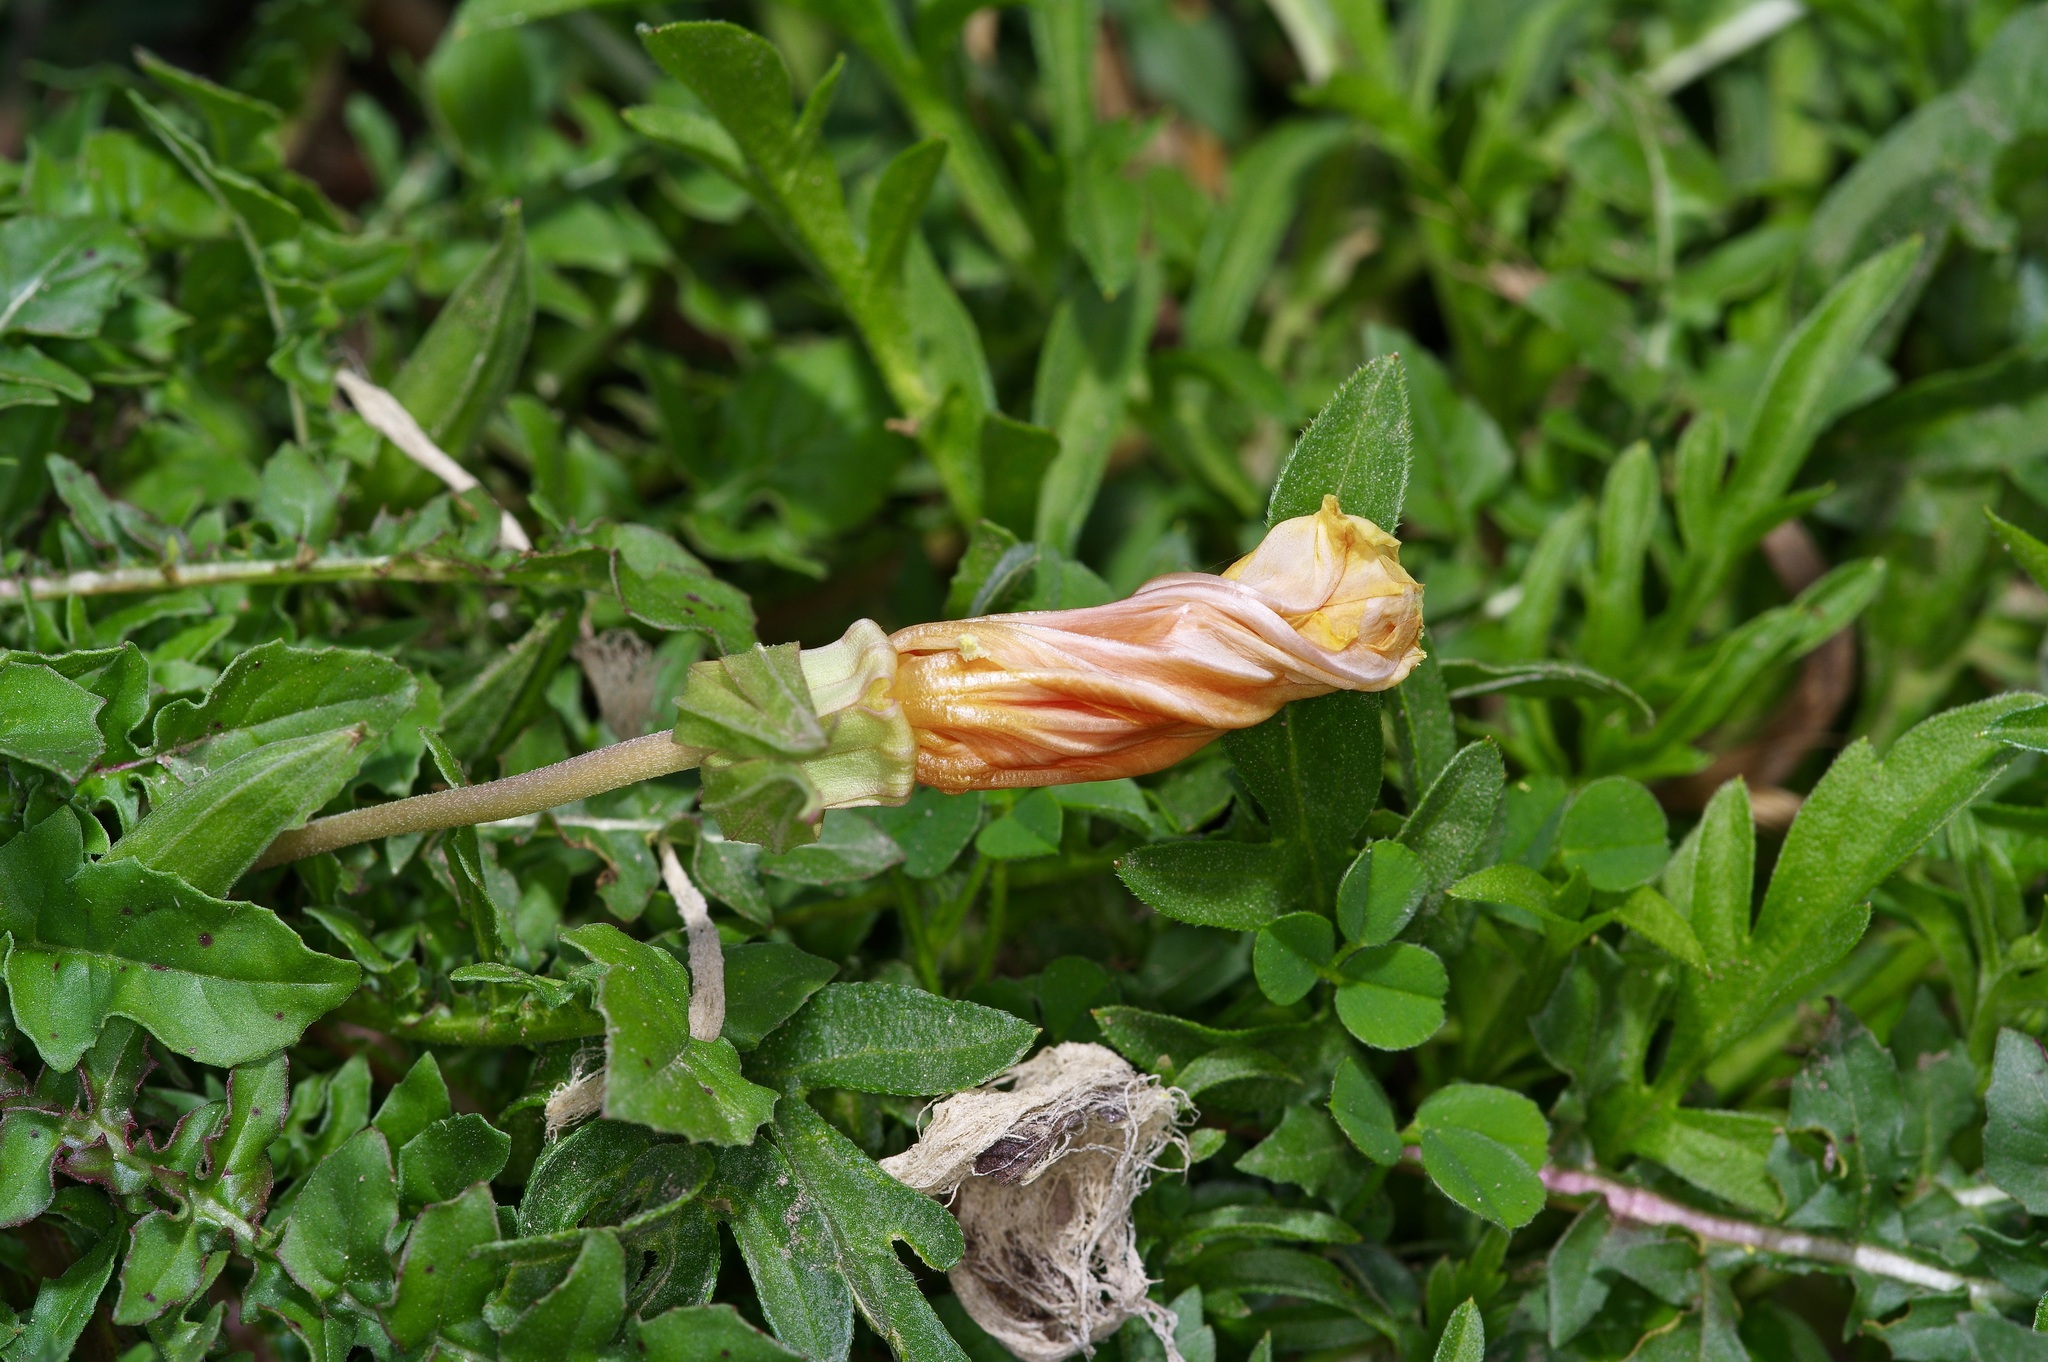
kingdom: Plantae
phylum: Tracheophyta
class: Magnoliopsida
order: Myrtales
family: Onagraceae
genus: Oenothera
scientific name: Oenothera triloba
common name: Sessile evening-primrose
